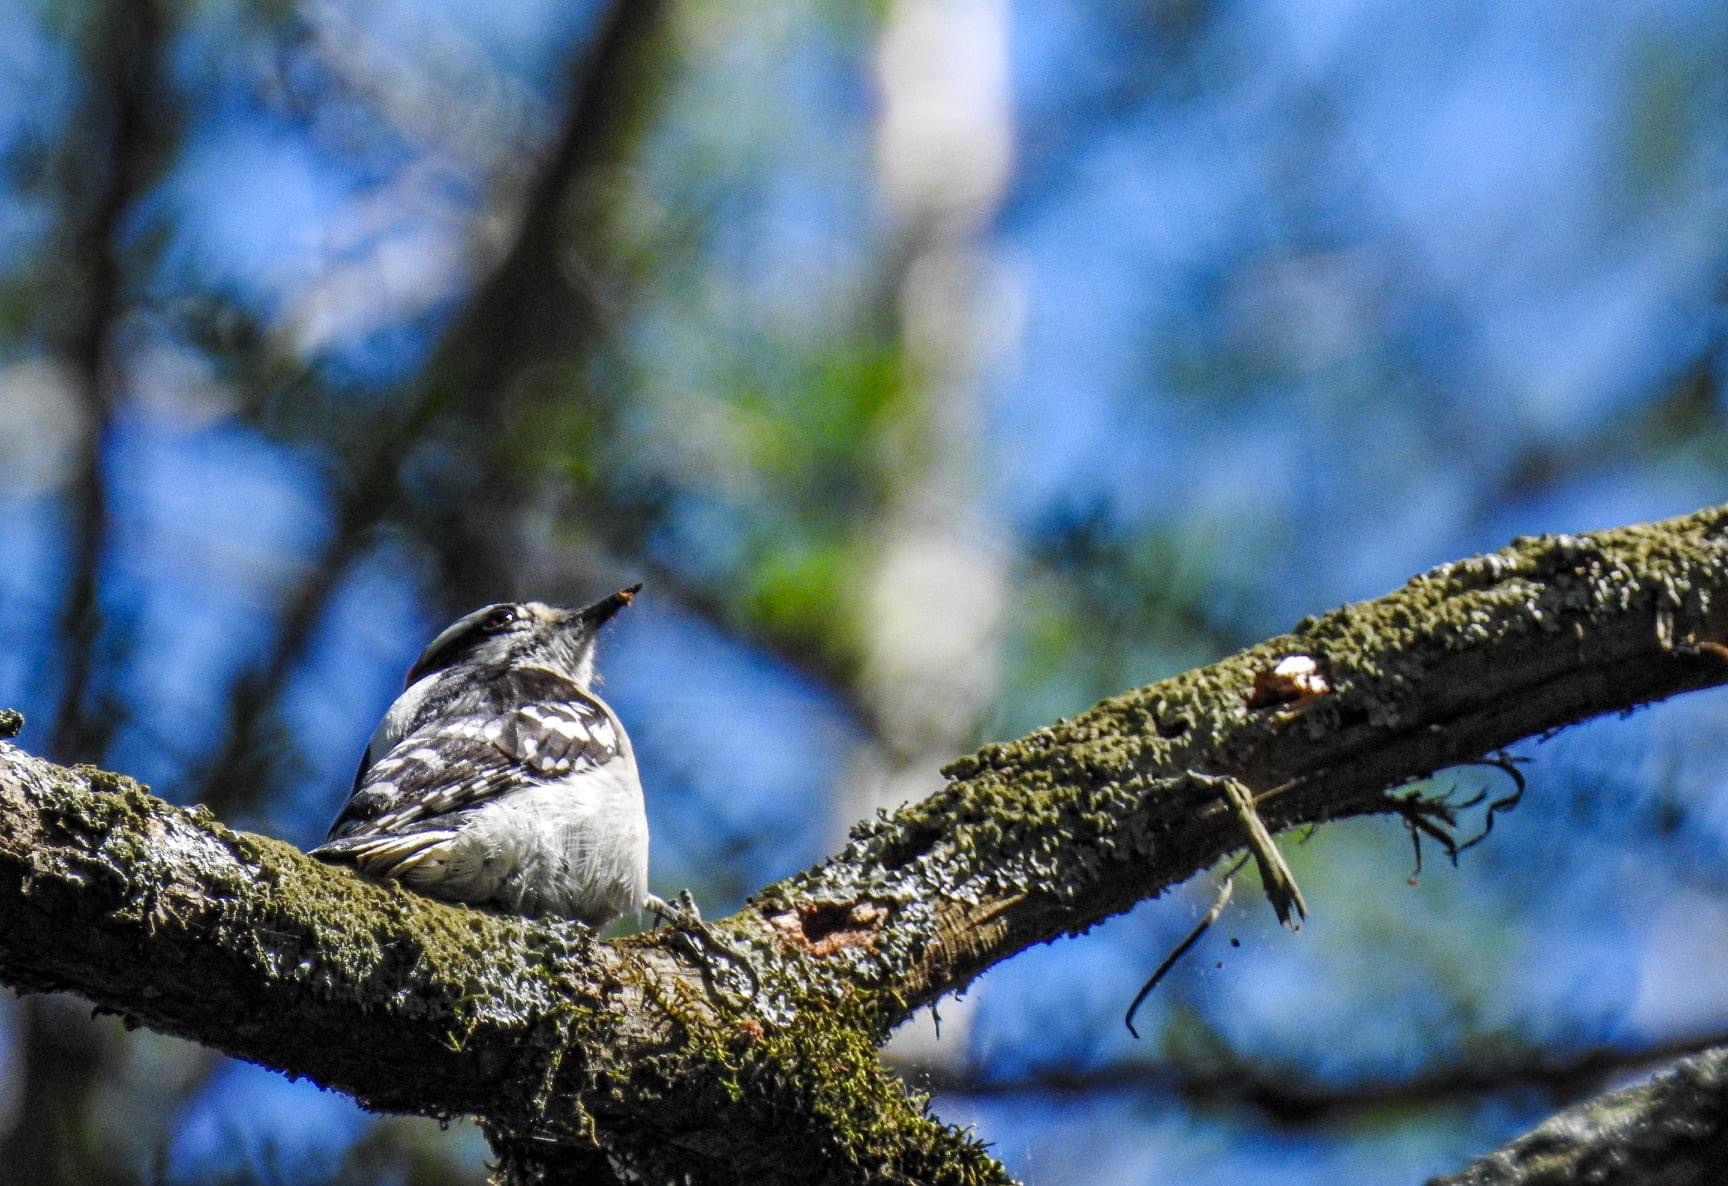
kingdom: Animalia
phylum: Chordata
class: Aves
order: Piciformes
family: Picidae
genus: Dryobates
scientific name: Dryobates pubescens
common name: Downy woodpecker
